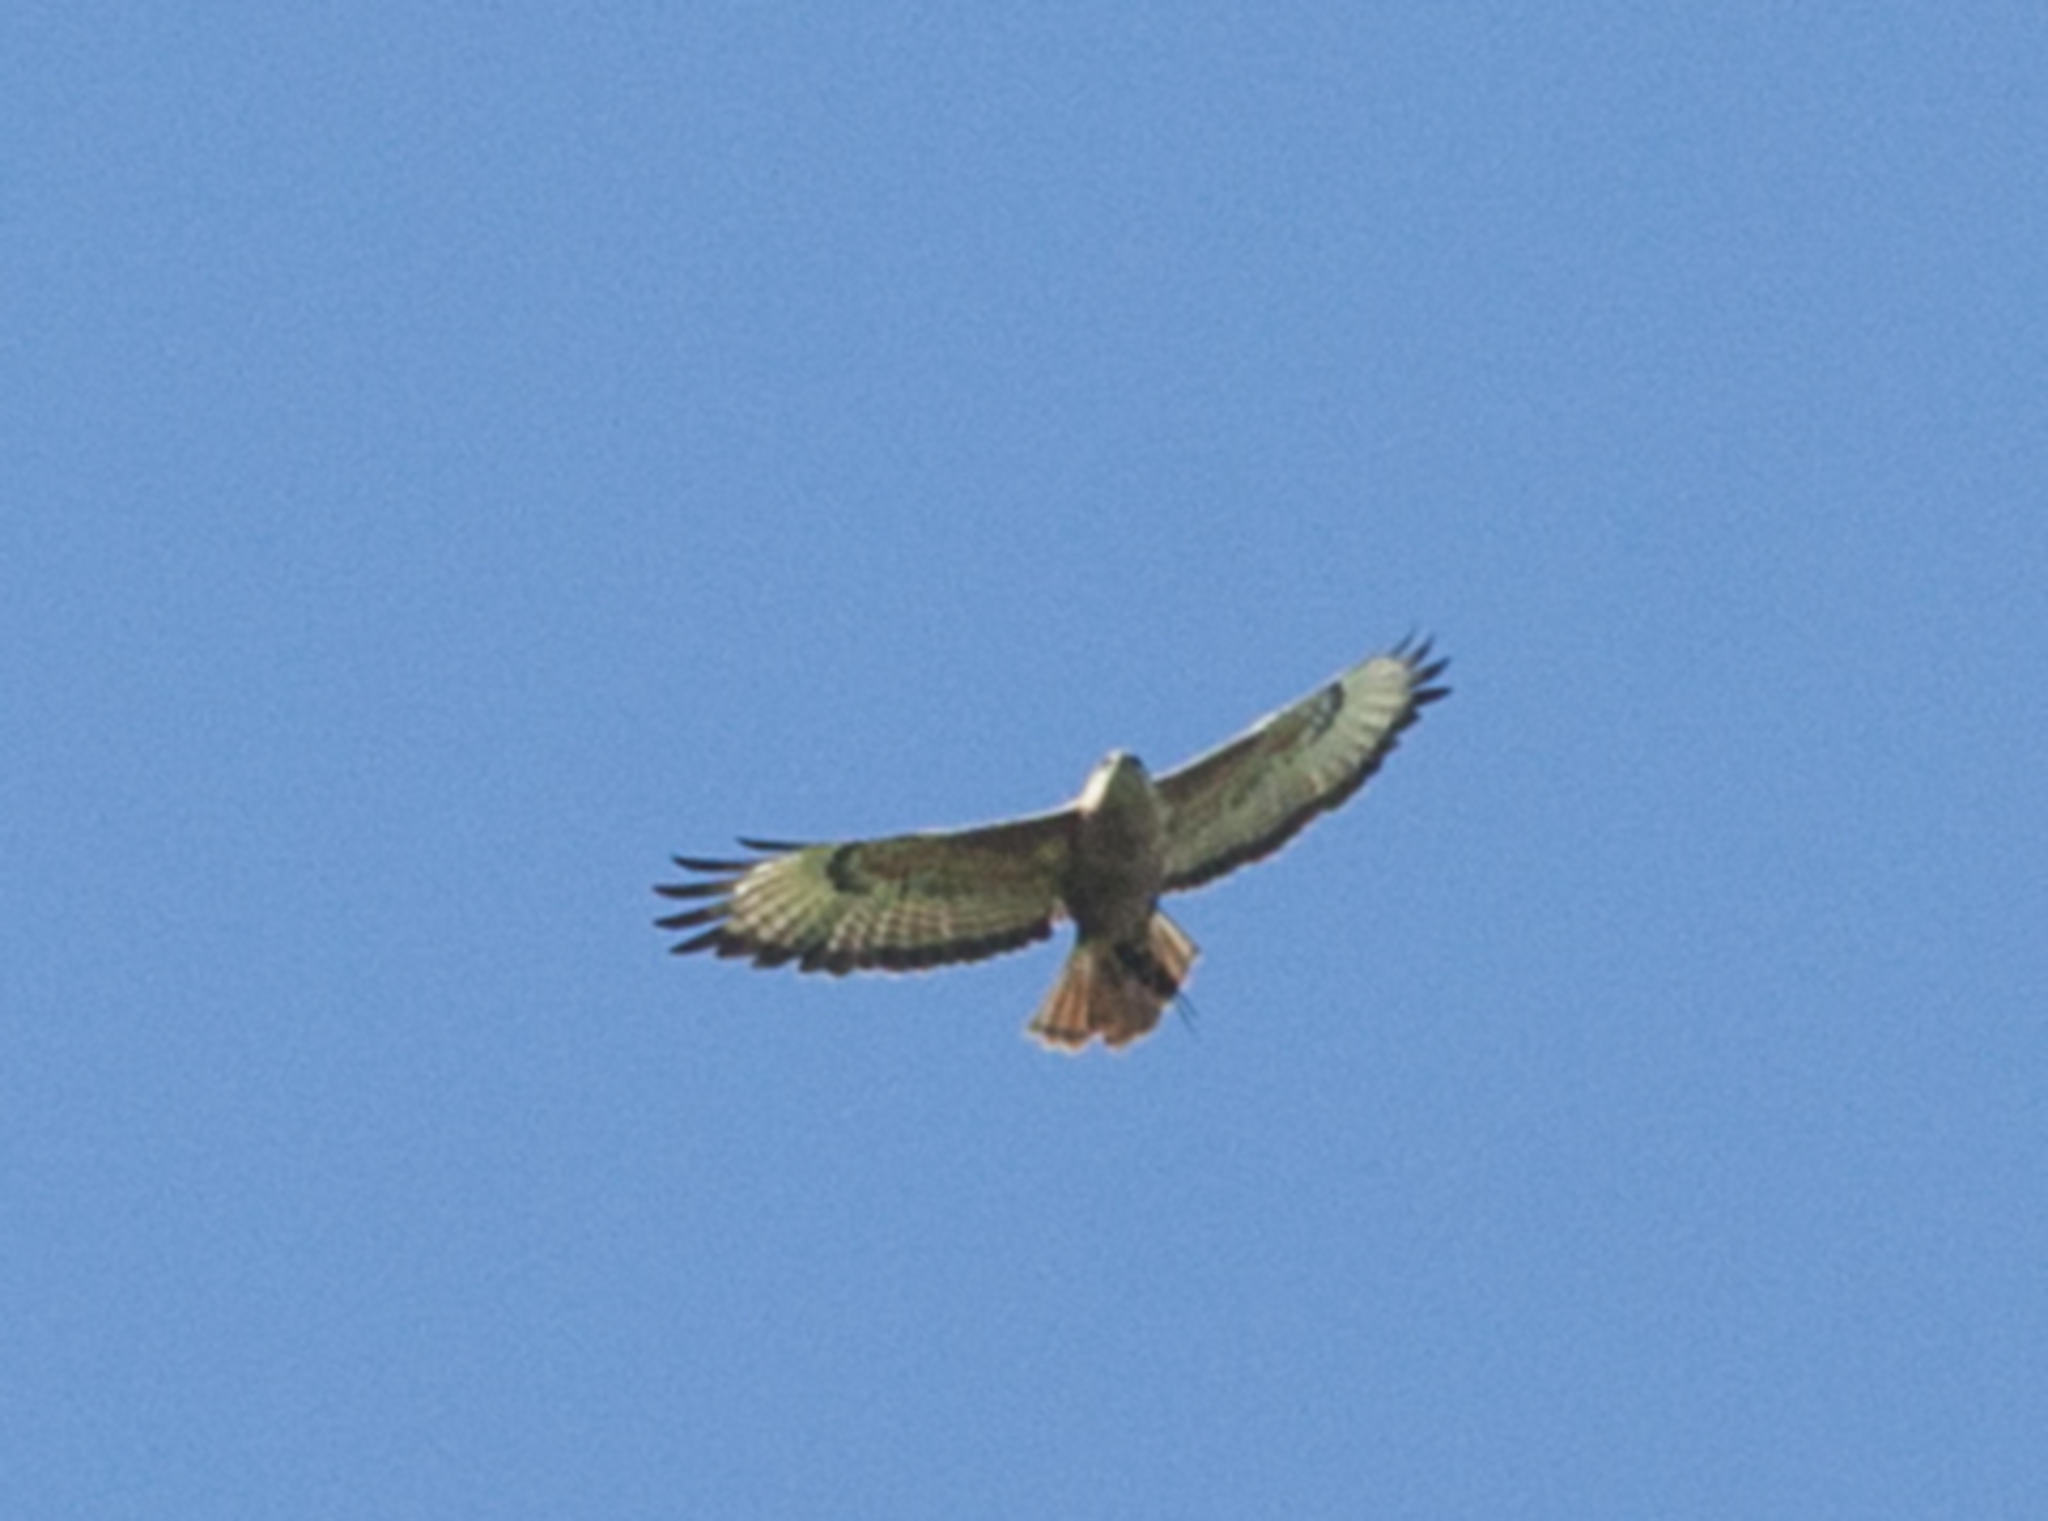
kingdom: Animalia
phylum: Chordata
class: Aves
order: Accipitriformes
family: Accipitridae
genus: Buteo
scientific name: Buteo buteo
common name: Common buzzard
